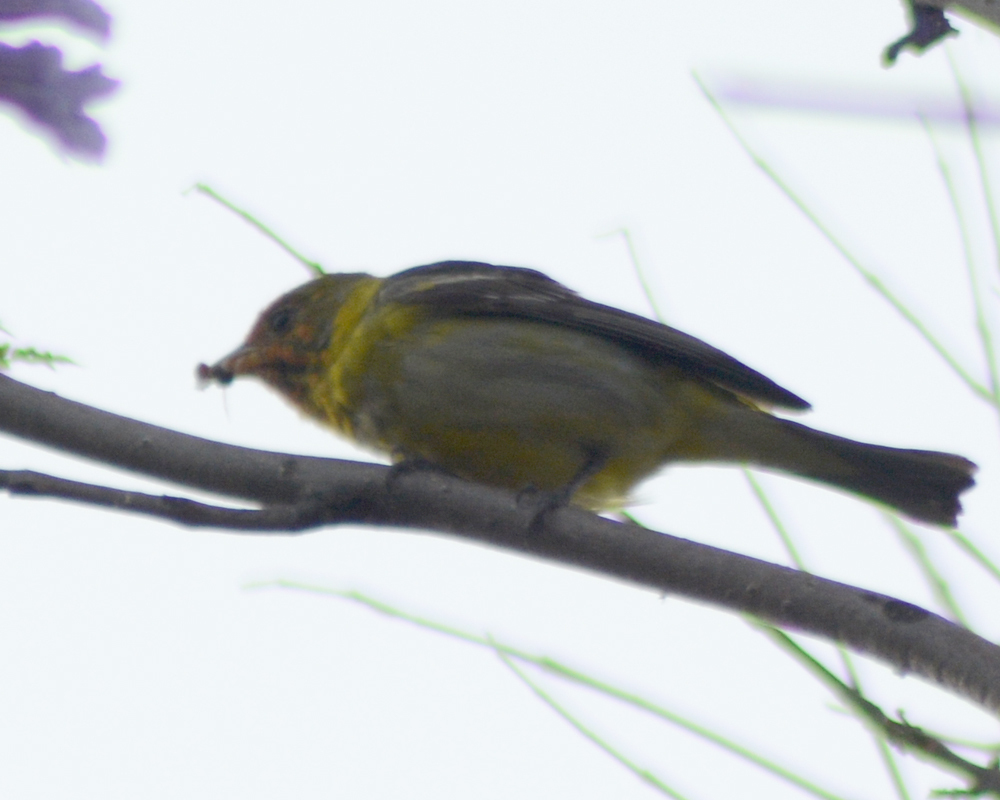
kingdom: Animalia
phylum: Chordata
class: Aves
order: Passeriformes
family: Cardinalidae
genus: Piranga
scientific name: Piranga ludoviciana
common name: Western tanager
